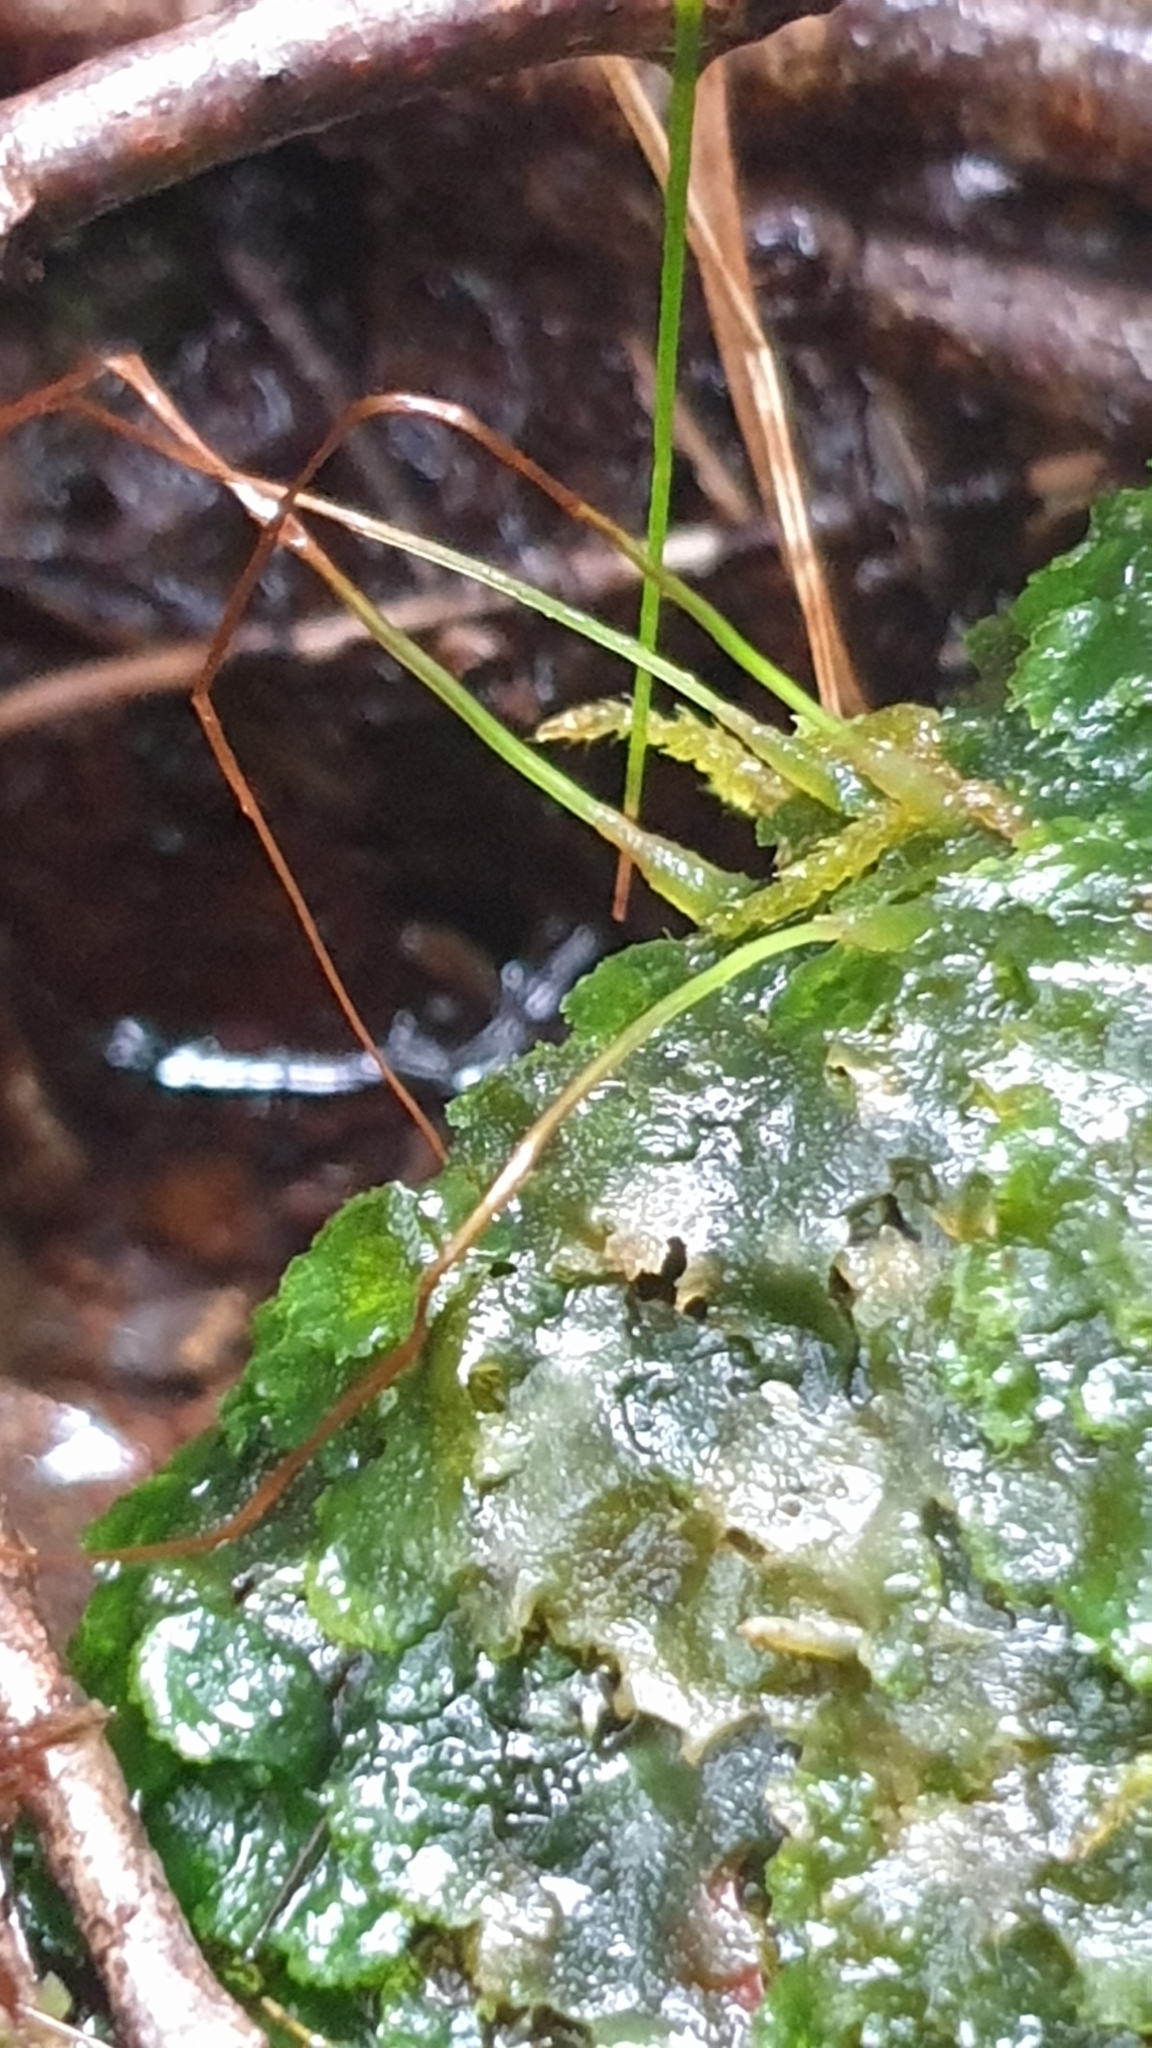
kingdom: Plantae
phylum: Anthocerotophyta
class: Anthocerotopsida
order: Dendrocerotales
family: Dendrocerotaceae
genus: Megaceros
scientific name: Megaceros gracilis
